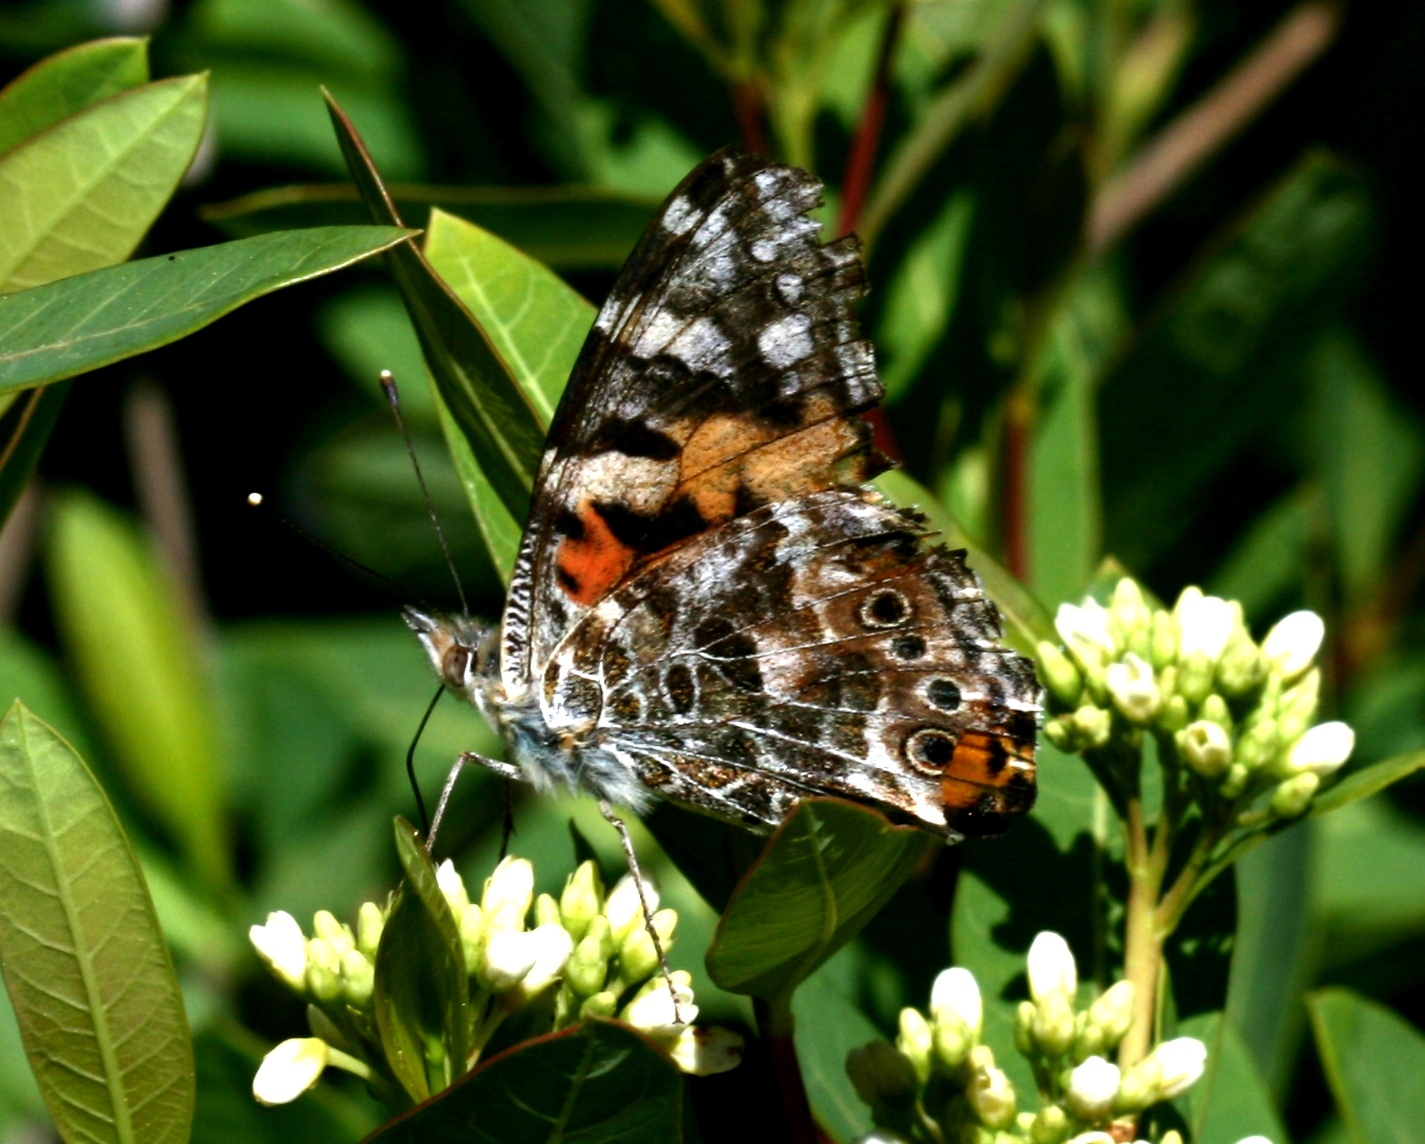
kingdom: Animalia
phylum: Arthropoda
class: Insecta
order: Lepidoptera
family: Nymphalidae
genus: Vanessa
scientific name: Vanessa cardui
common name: Painted lady
